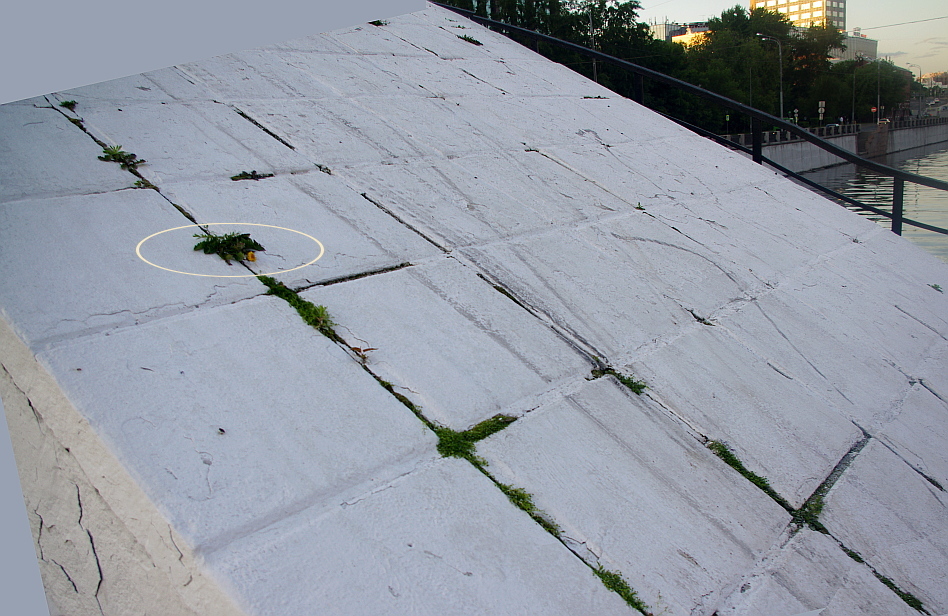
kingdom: Plantae
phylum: Tracheophyta
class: Magnoliopsida
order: Asterales
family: Asteraceae
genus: Taraxacum
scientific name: Taraxacum officinale
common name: Common dandelion
